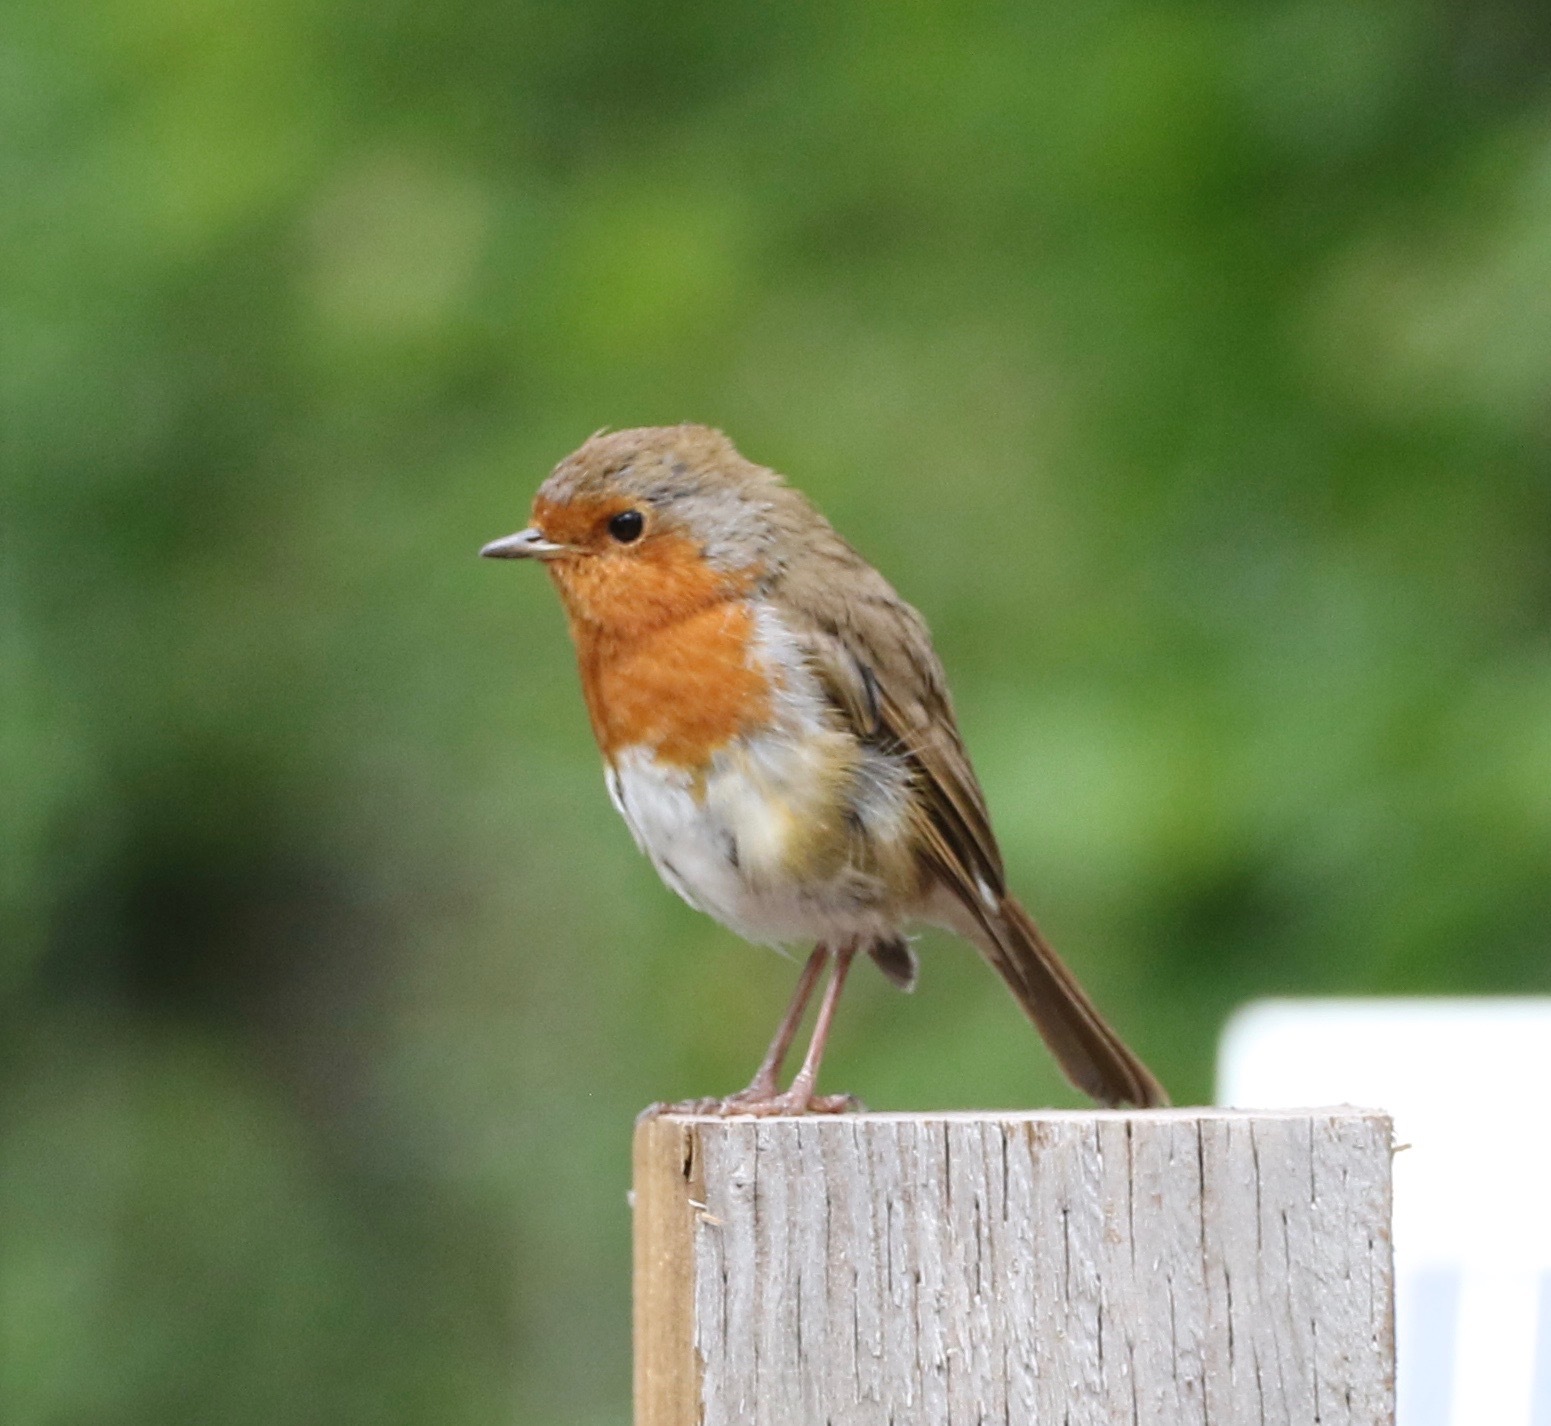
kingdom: Animalia
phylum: Chordata
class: Aves
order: Passeriformes
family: Muscicapidae
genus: Erithacus
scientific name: Erithacus rubecula
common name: European robin
